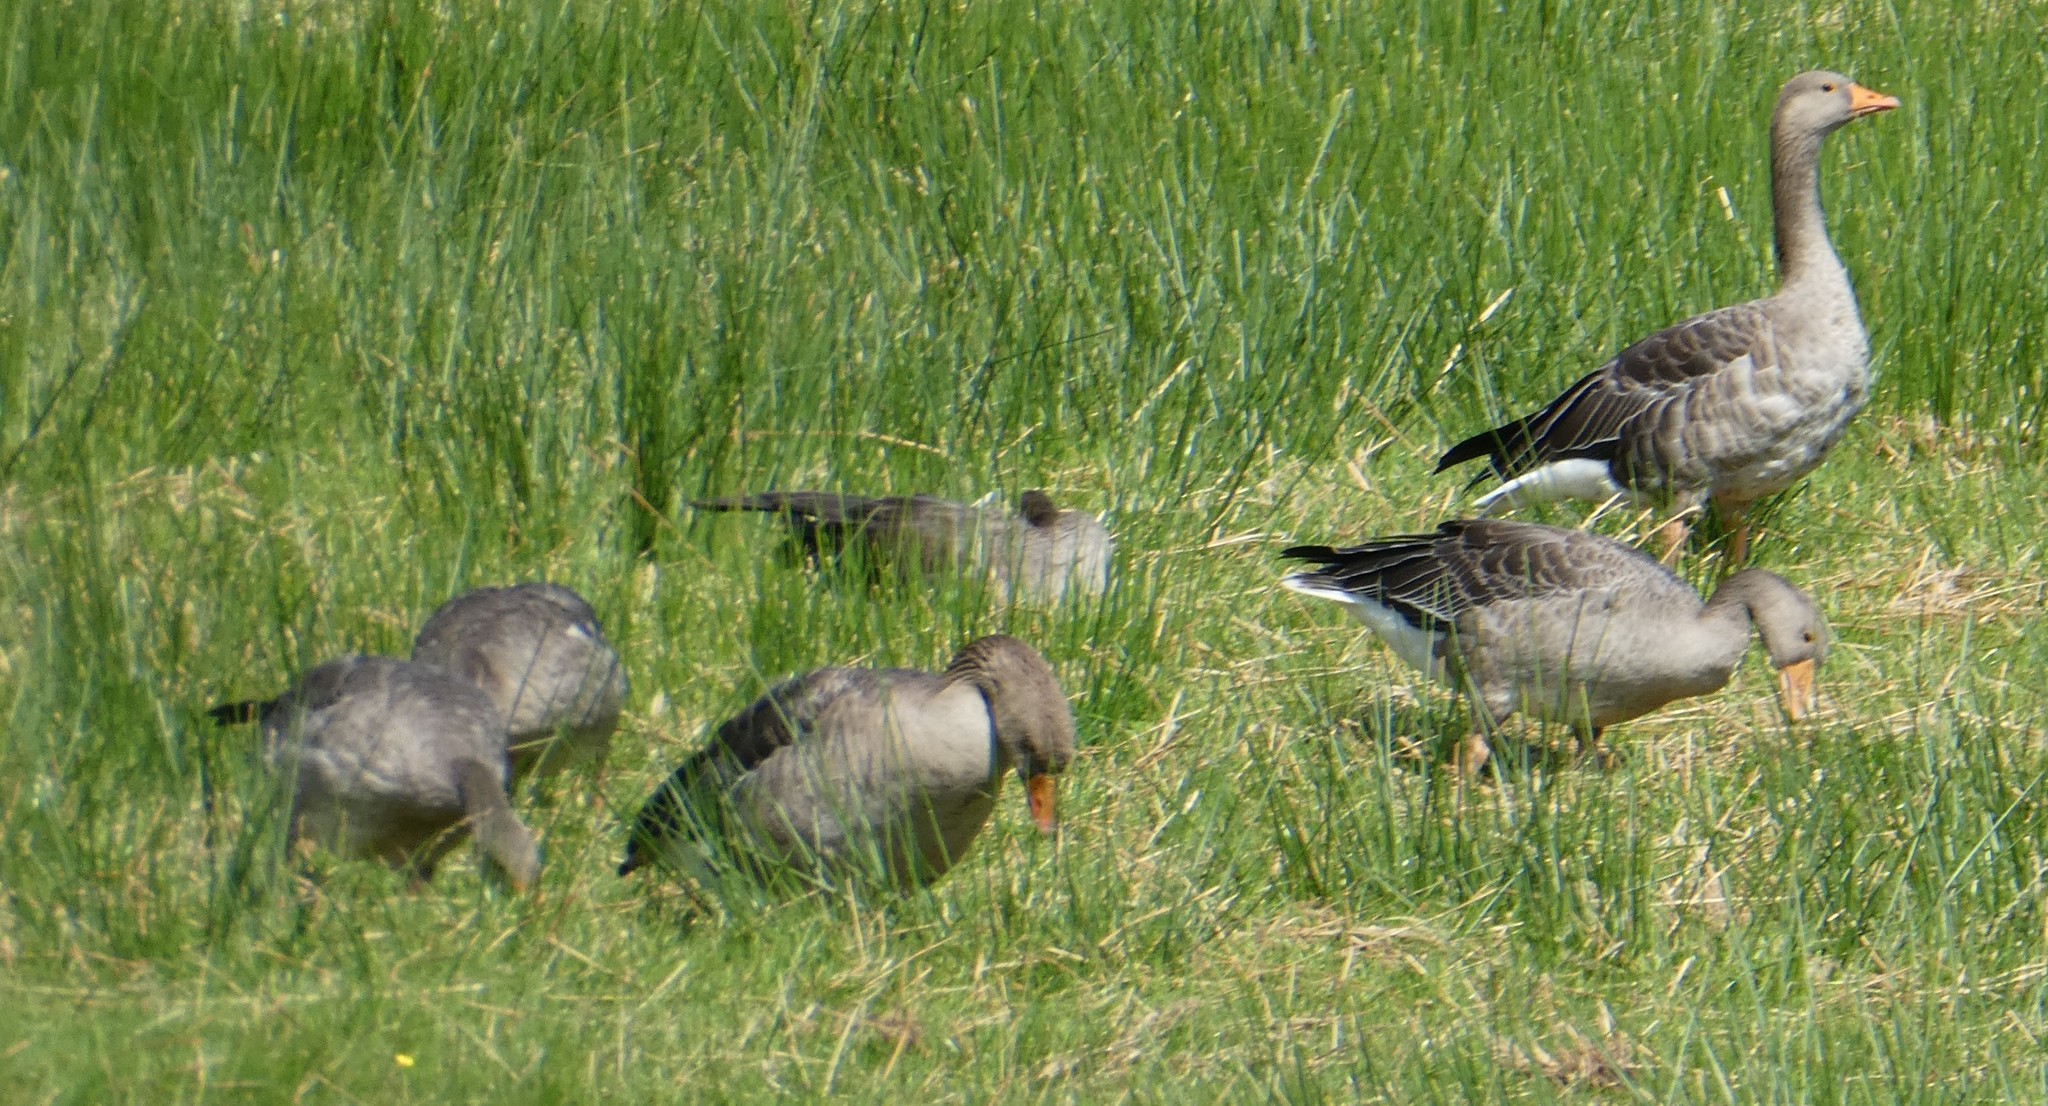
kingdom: Animalia
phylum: Chordata
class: Aves
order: Anseriformes
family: Anatidae
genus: Anser
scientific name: Anser anser
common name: Greylag goose
